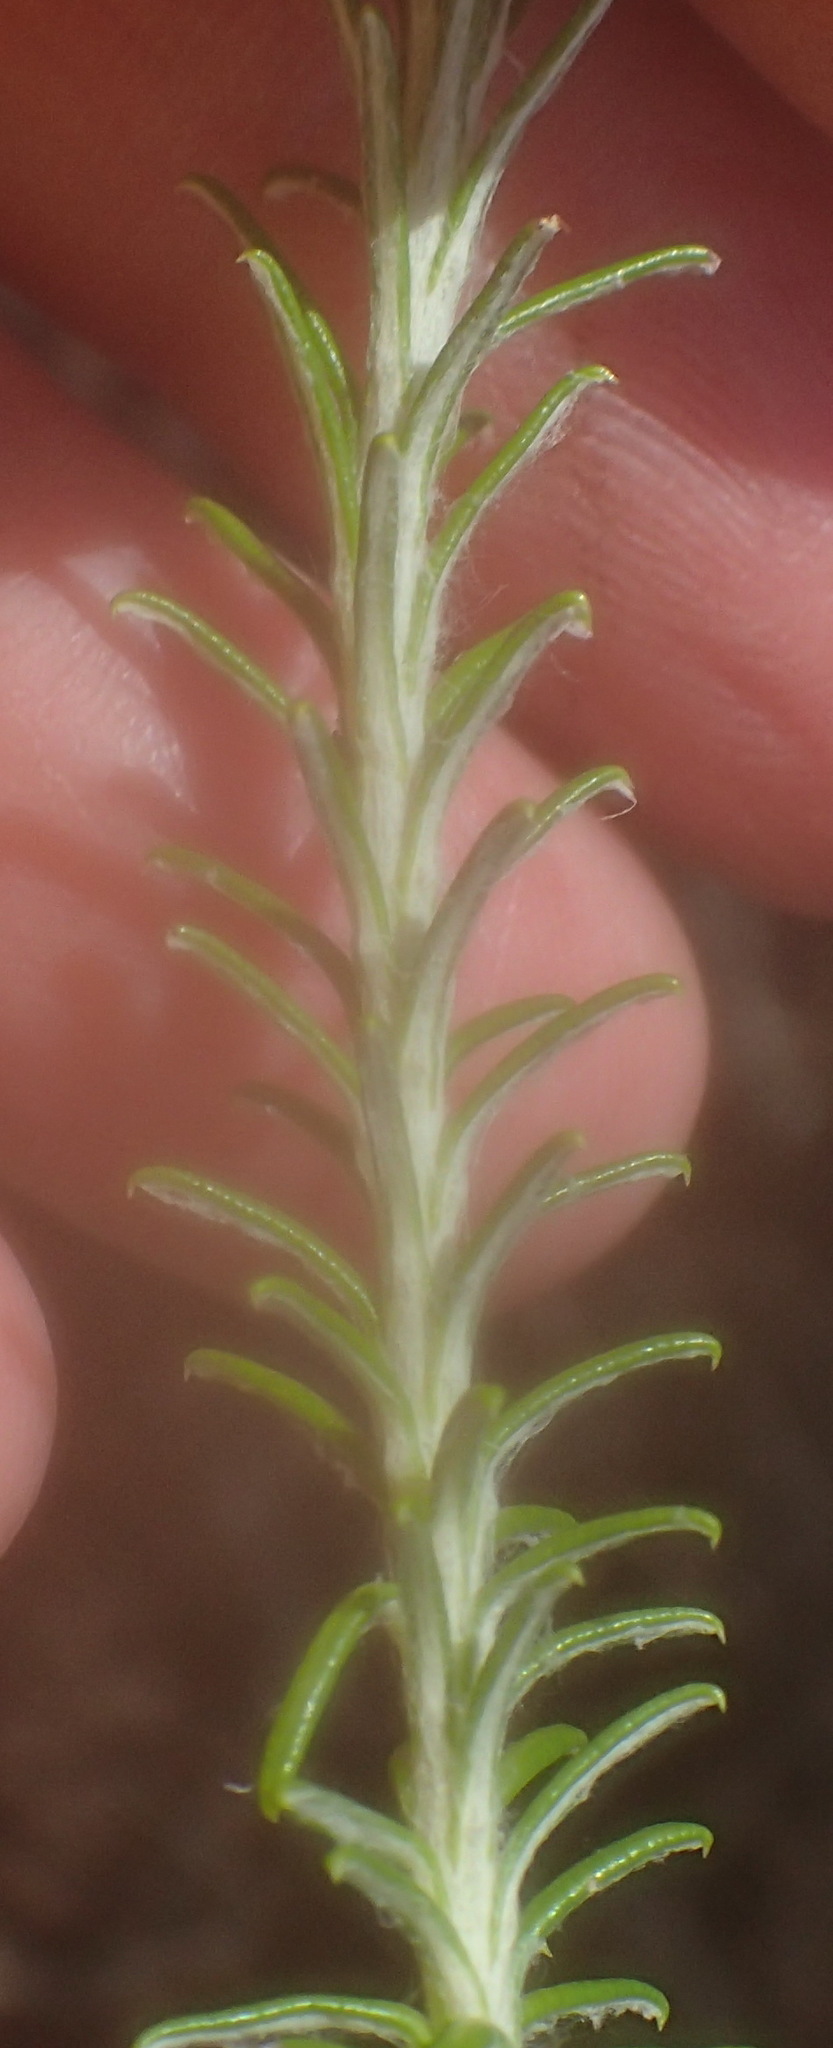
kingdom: Plantae
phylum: Tracheophyta
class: Magnoliopsida
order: Asterales
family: Asteraceae
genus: Helichrysum
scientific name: Helichrysum teretifolium
